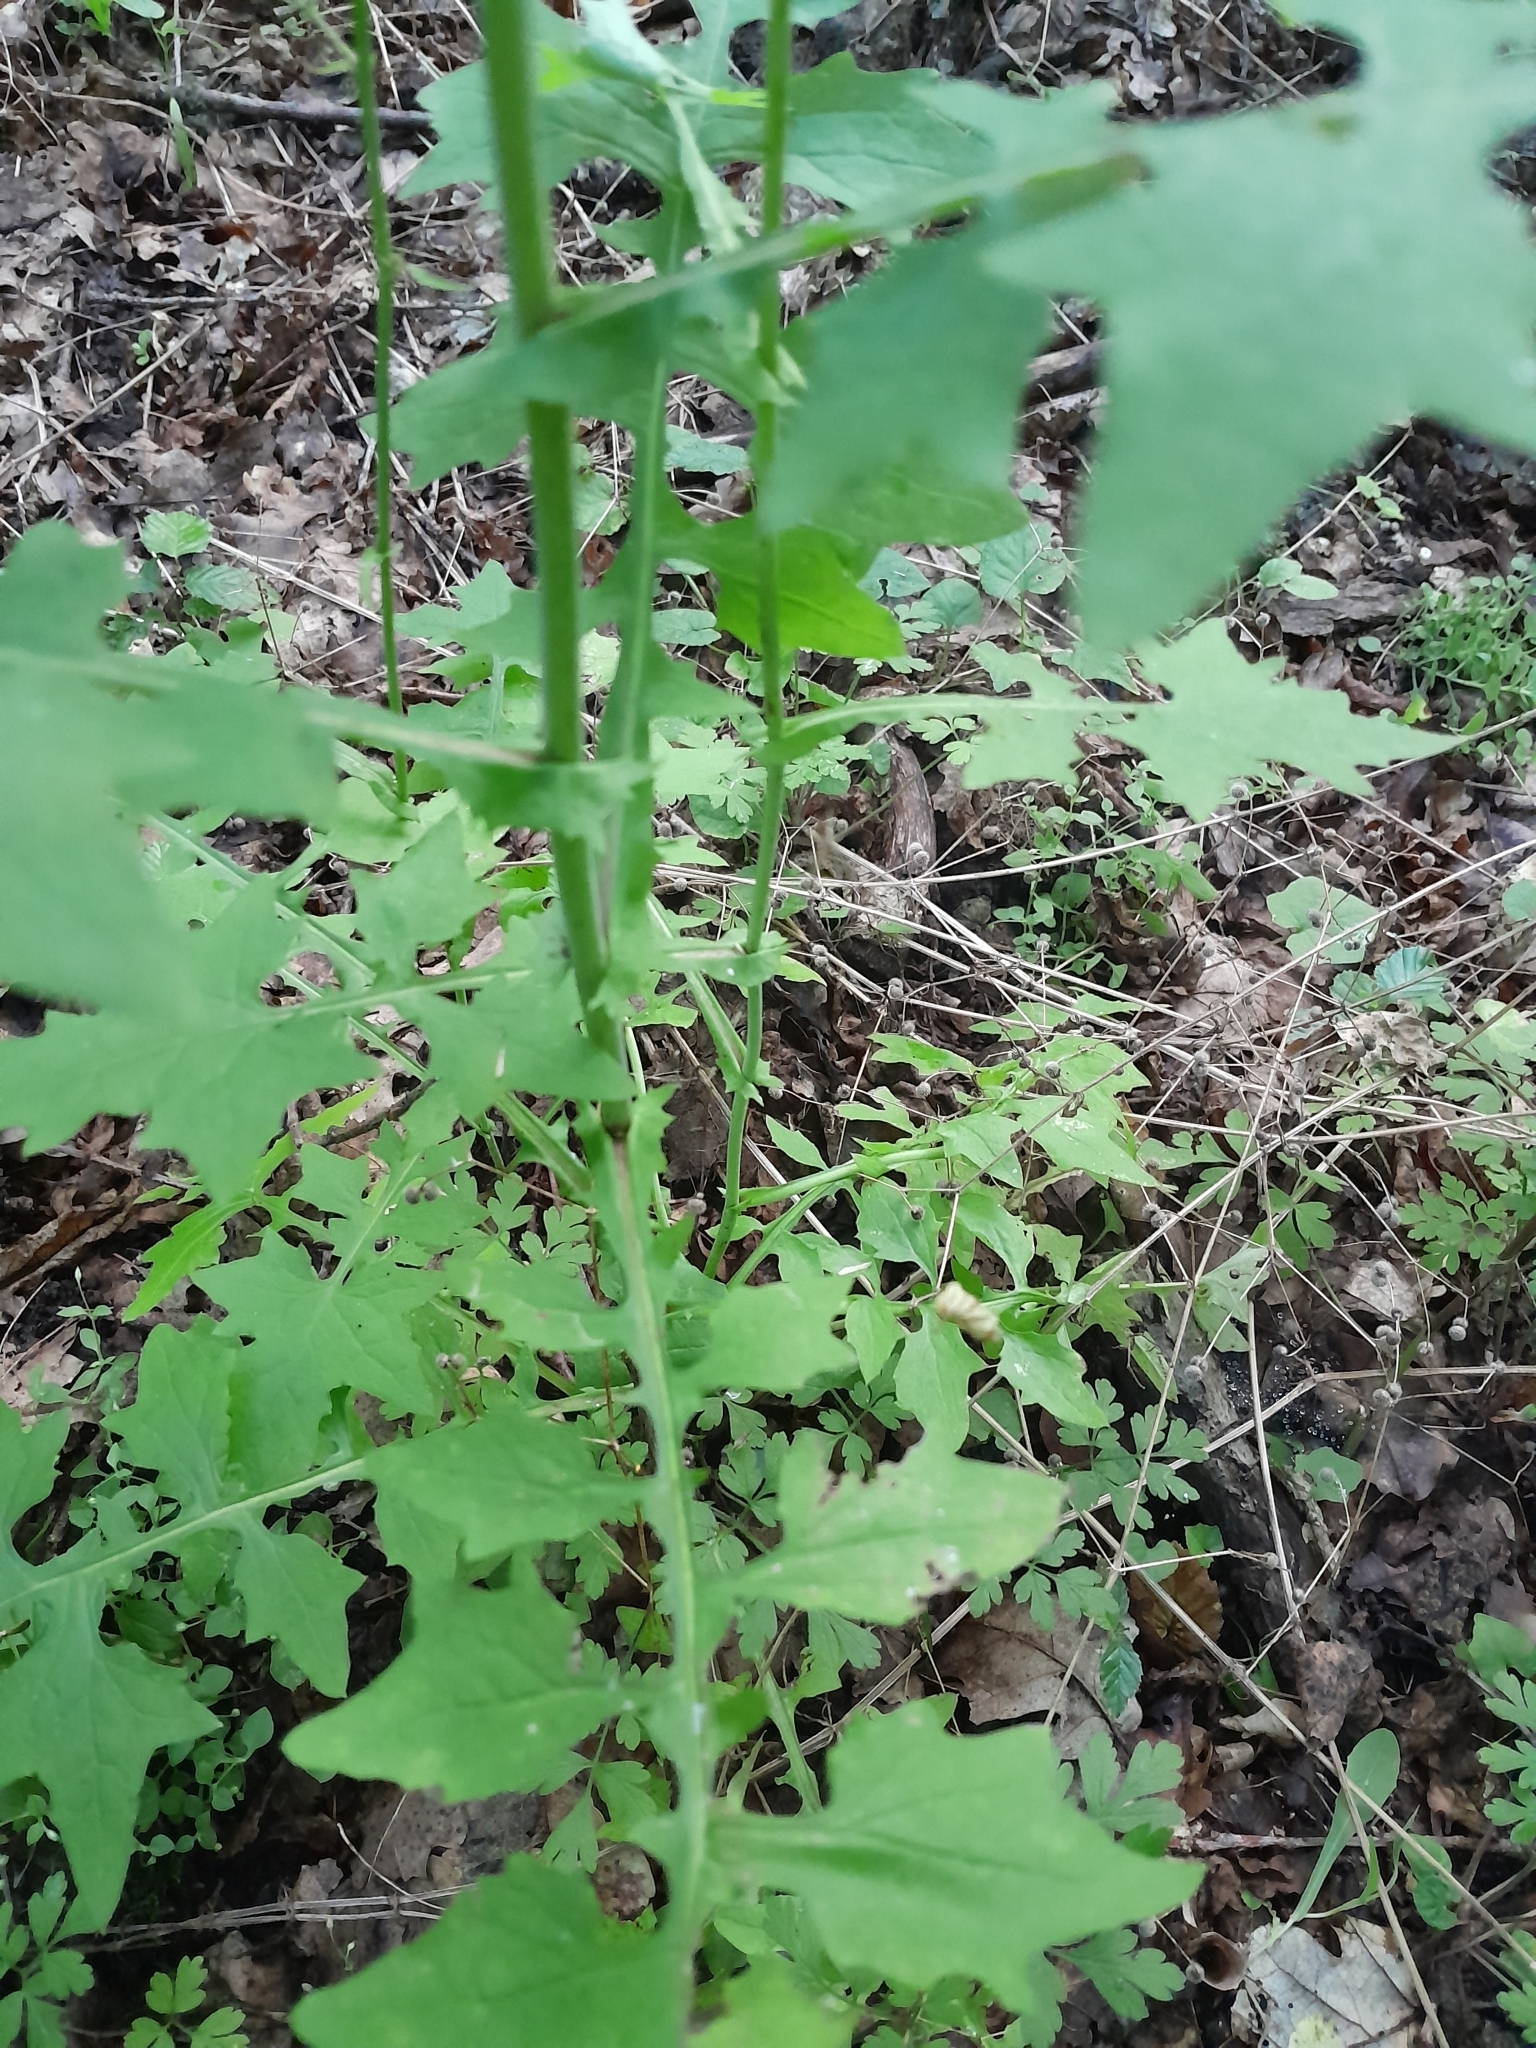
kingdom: Plantae
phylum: Tracheophyta
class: Magnoliopsida
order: Asterales
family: Asteraceae
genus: Mycelis
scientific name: Mycelis muralis
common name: Wall lettuce
